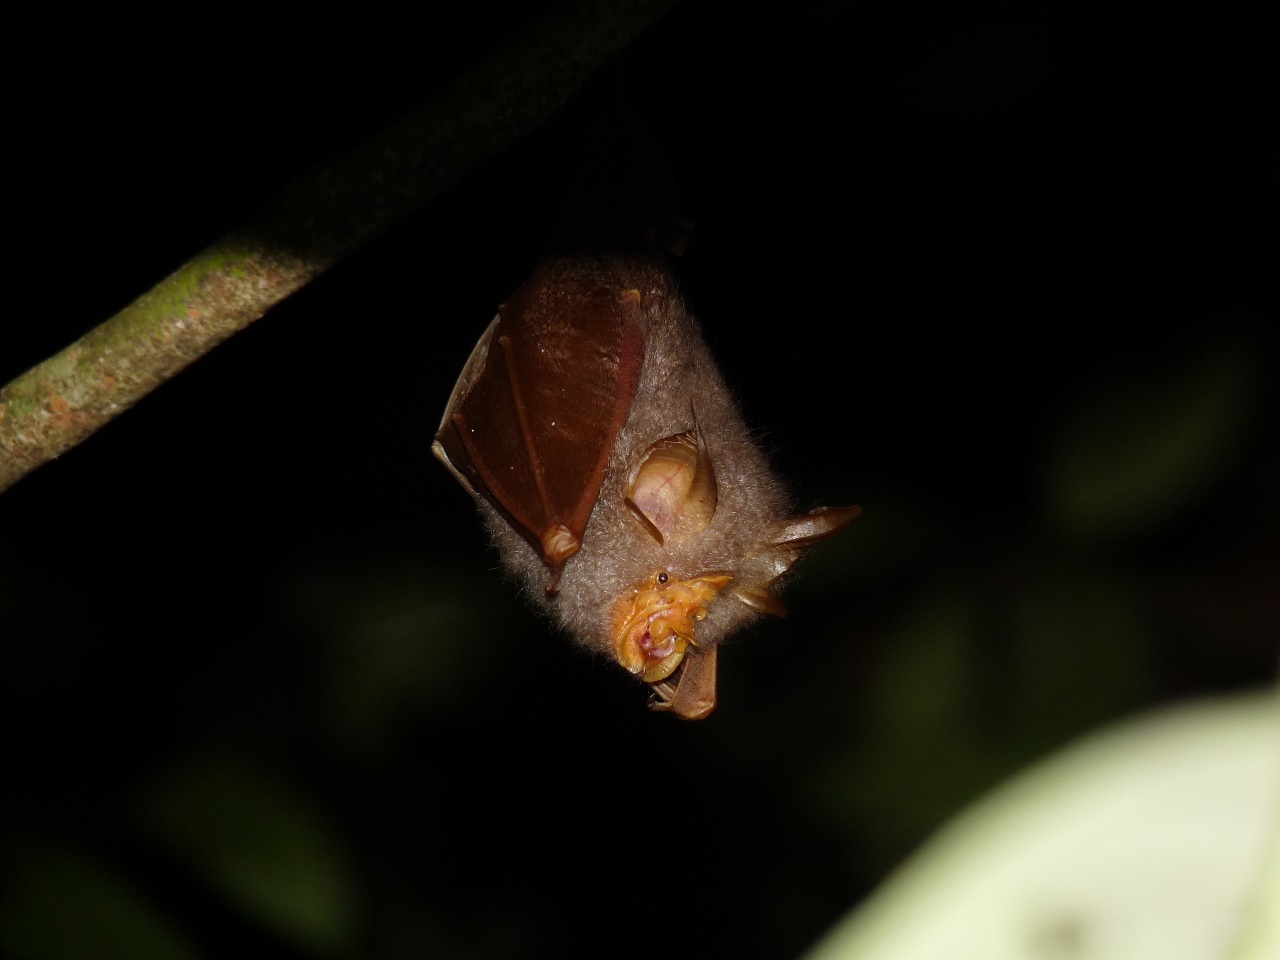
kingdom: Animalia
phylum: Chordata
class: Mammalia
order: Chiroptera
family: Rhinolophidae
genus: Rhinolophus
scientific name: Rhinolophus trifoliatus
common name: Trefoil horseshoe bat
